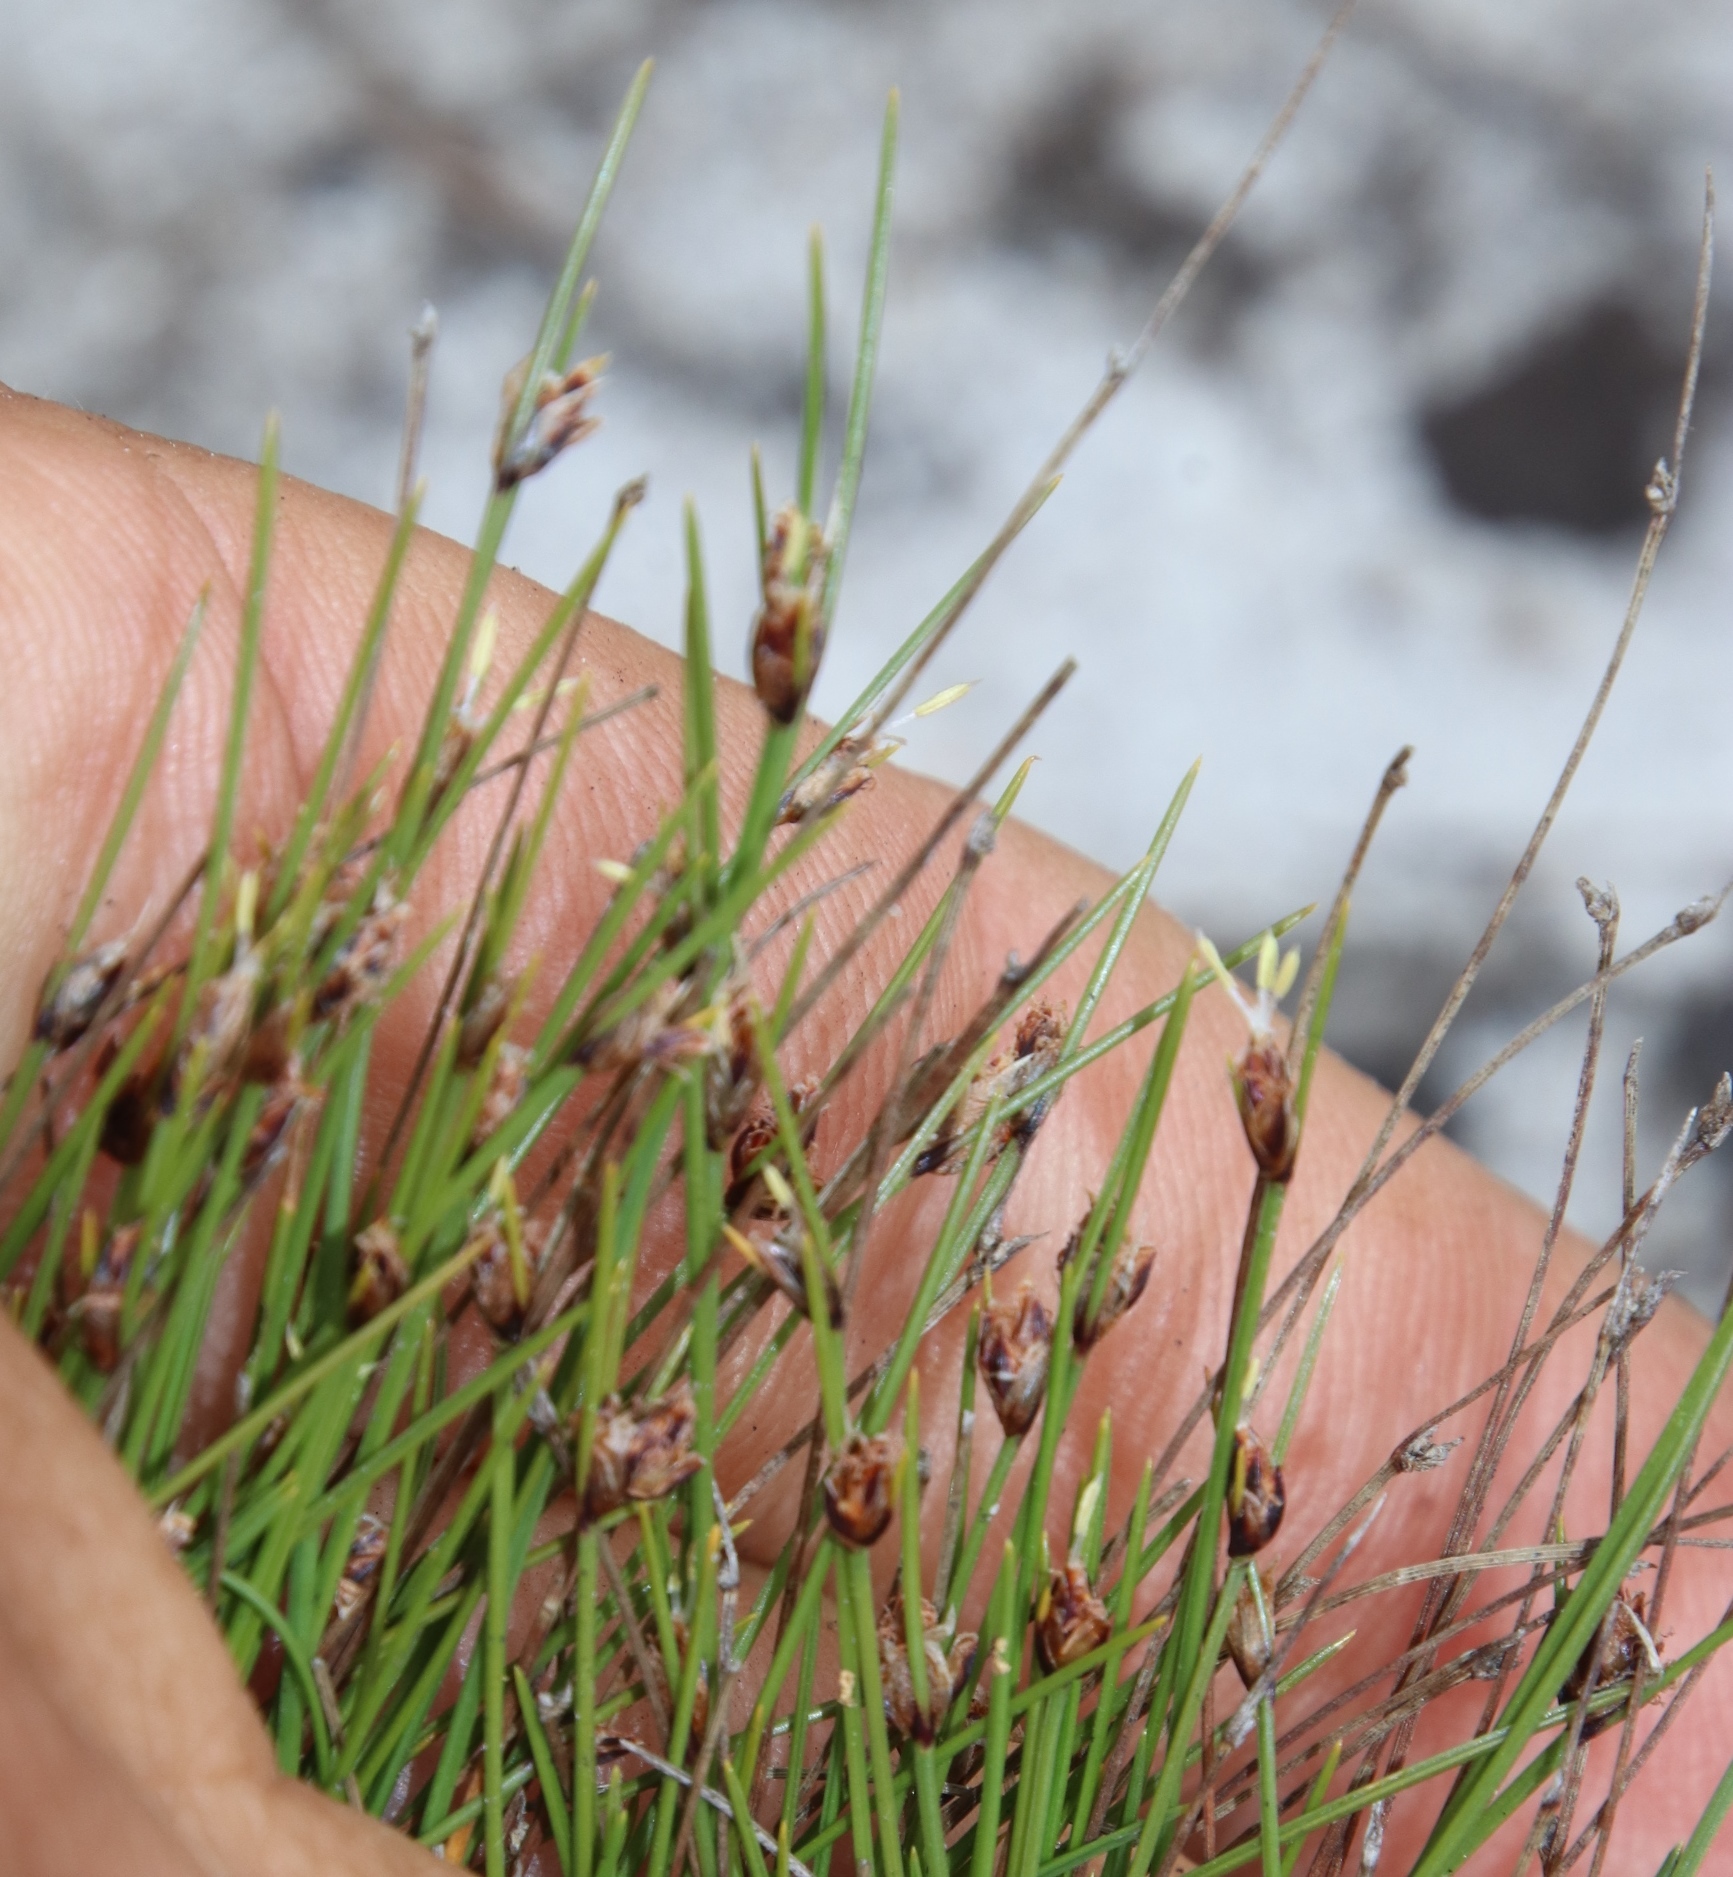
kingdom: Plantae
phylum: Tracheophyta
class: Liliopsida
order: Poales
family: Cyperaceae
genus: Ficinia
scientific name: Ficinia capitella
